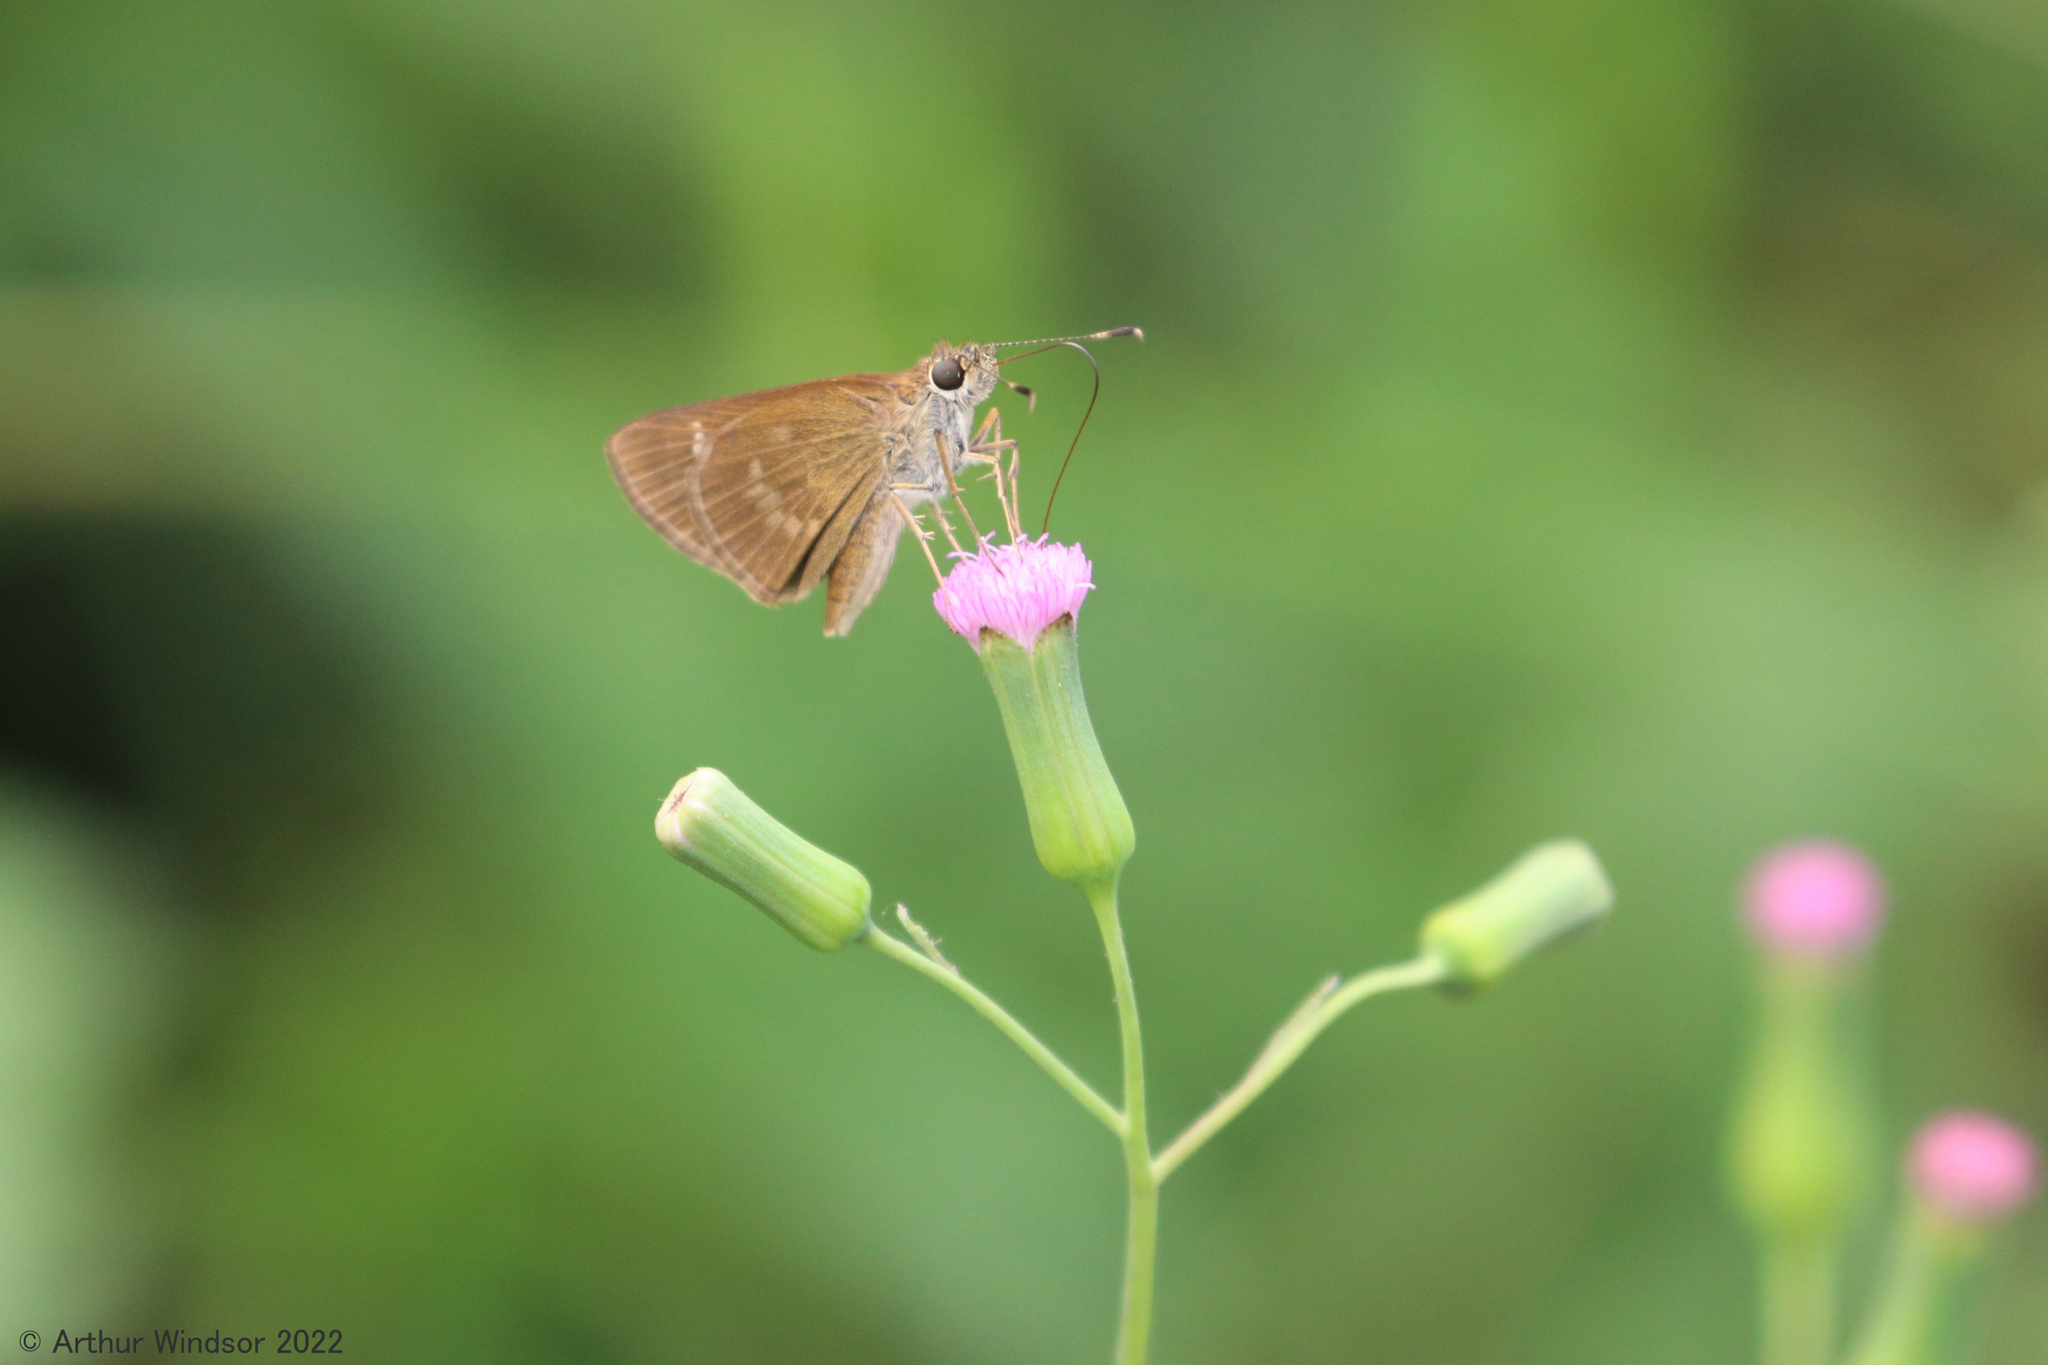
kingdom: Animalia
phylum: Arthropoda
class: Insecta
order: Lepidoptera
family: Hesperiidae
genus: Cymaenes
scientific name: Cymaenes tripunctus
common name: Dingy dotted skipper
